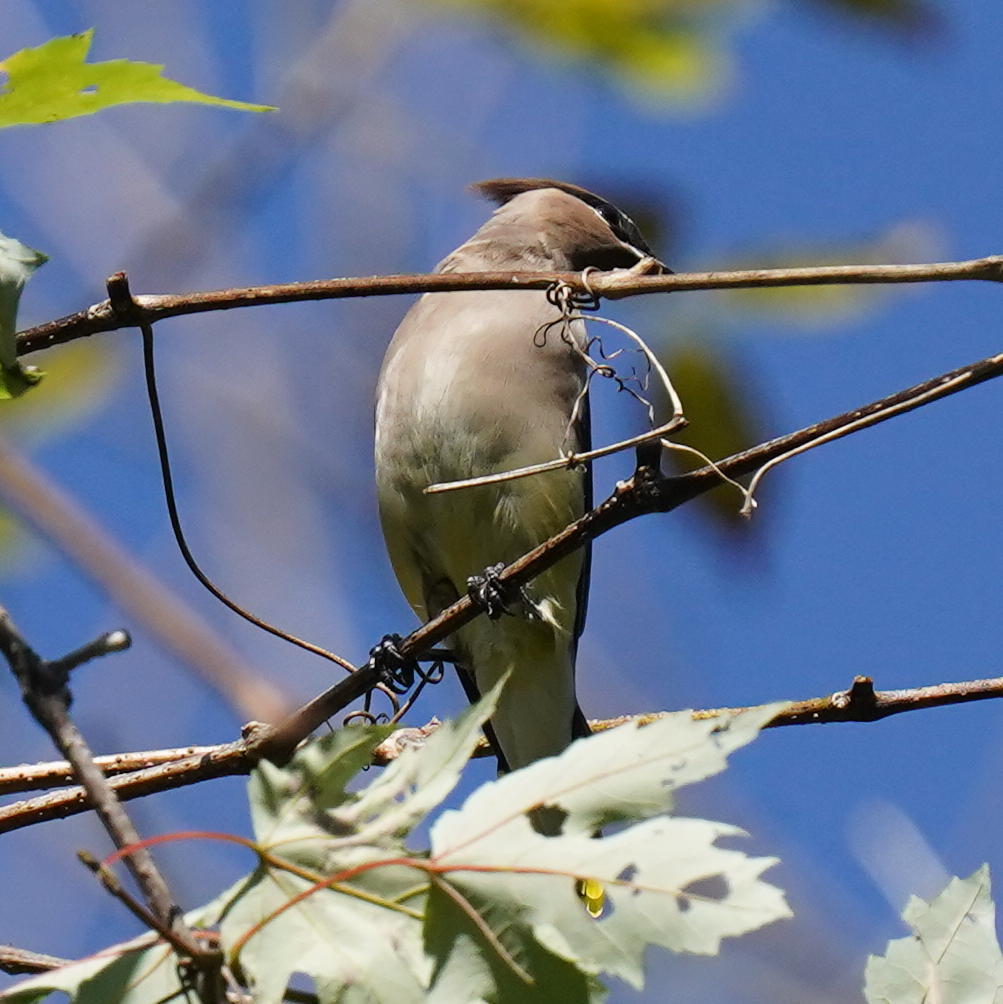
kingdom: Animalia
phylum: Chordata
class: Aves
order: Passeriformes
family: Bombycillidae
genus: Bombycilla
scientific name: Bombycilla cedrorum
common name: Cedar waxwing
